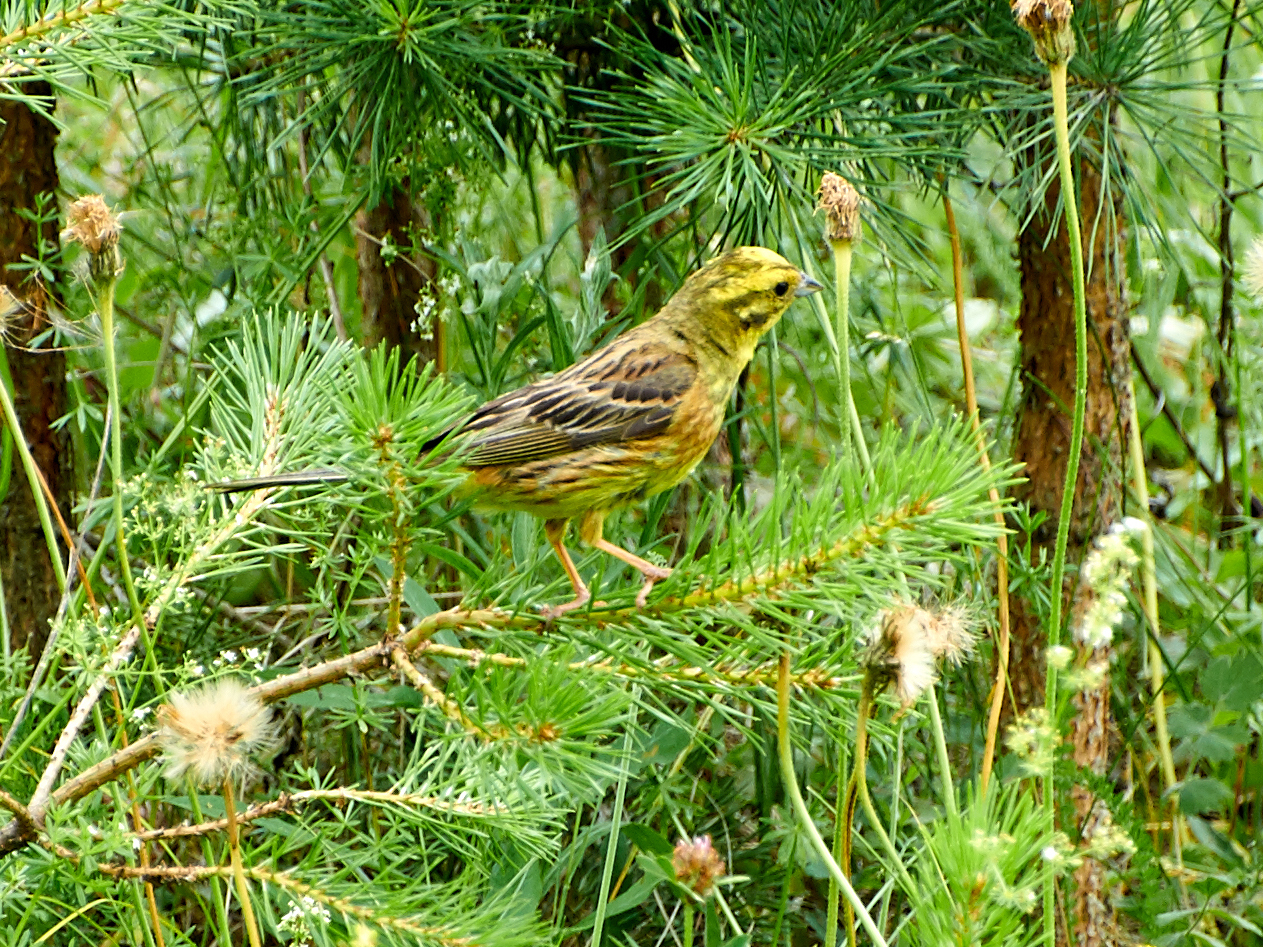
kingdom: Animalia
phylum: Chordata
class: Aves
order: Passeriformes
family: Emberizidae
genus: Emberiza
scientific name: Emberiza citrinella
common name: Yellowhammer
